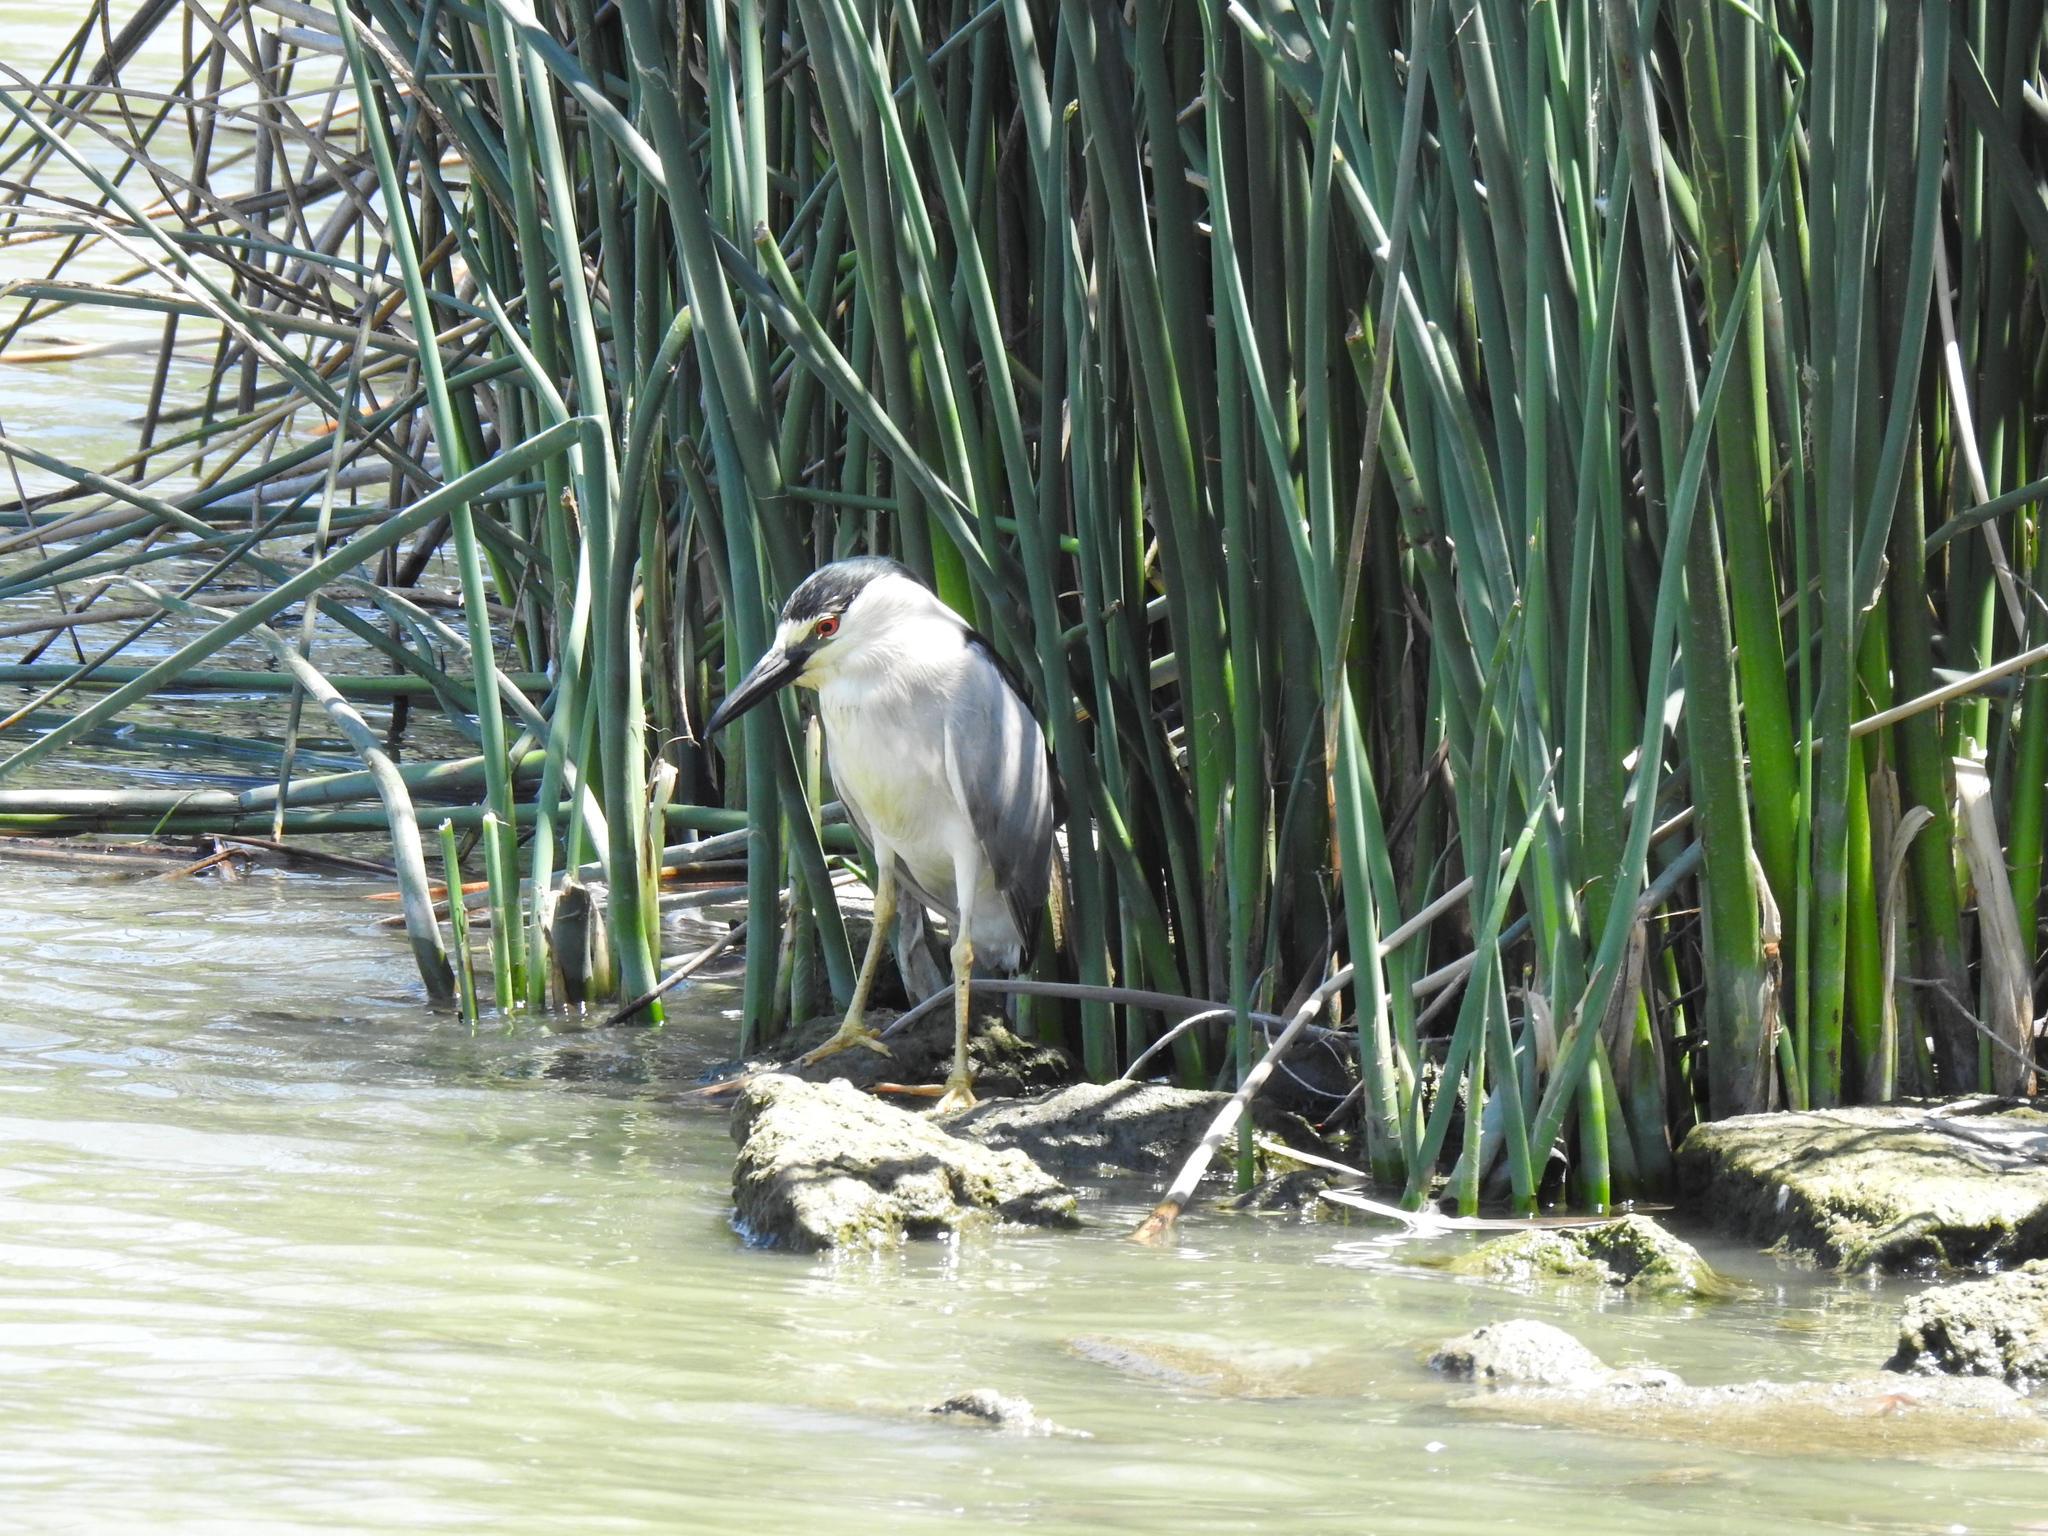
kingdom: Animalia
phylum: Chordata
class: Aves
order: Pelecaniformes
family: Ardeidae
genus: Nycticorax
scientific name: Nycticorax nycticorax
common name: Black-crowned night heron
